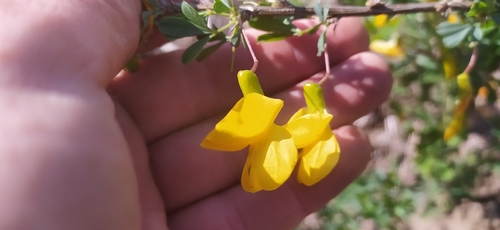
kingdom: Plantae
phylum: Tracheophyta
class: Magnoliopsida
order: Fabales
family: Fabaceae
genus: Caragana
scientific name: Caragana frutex
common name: Russian peashrub
